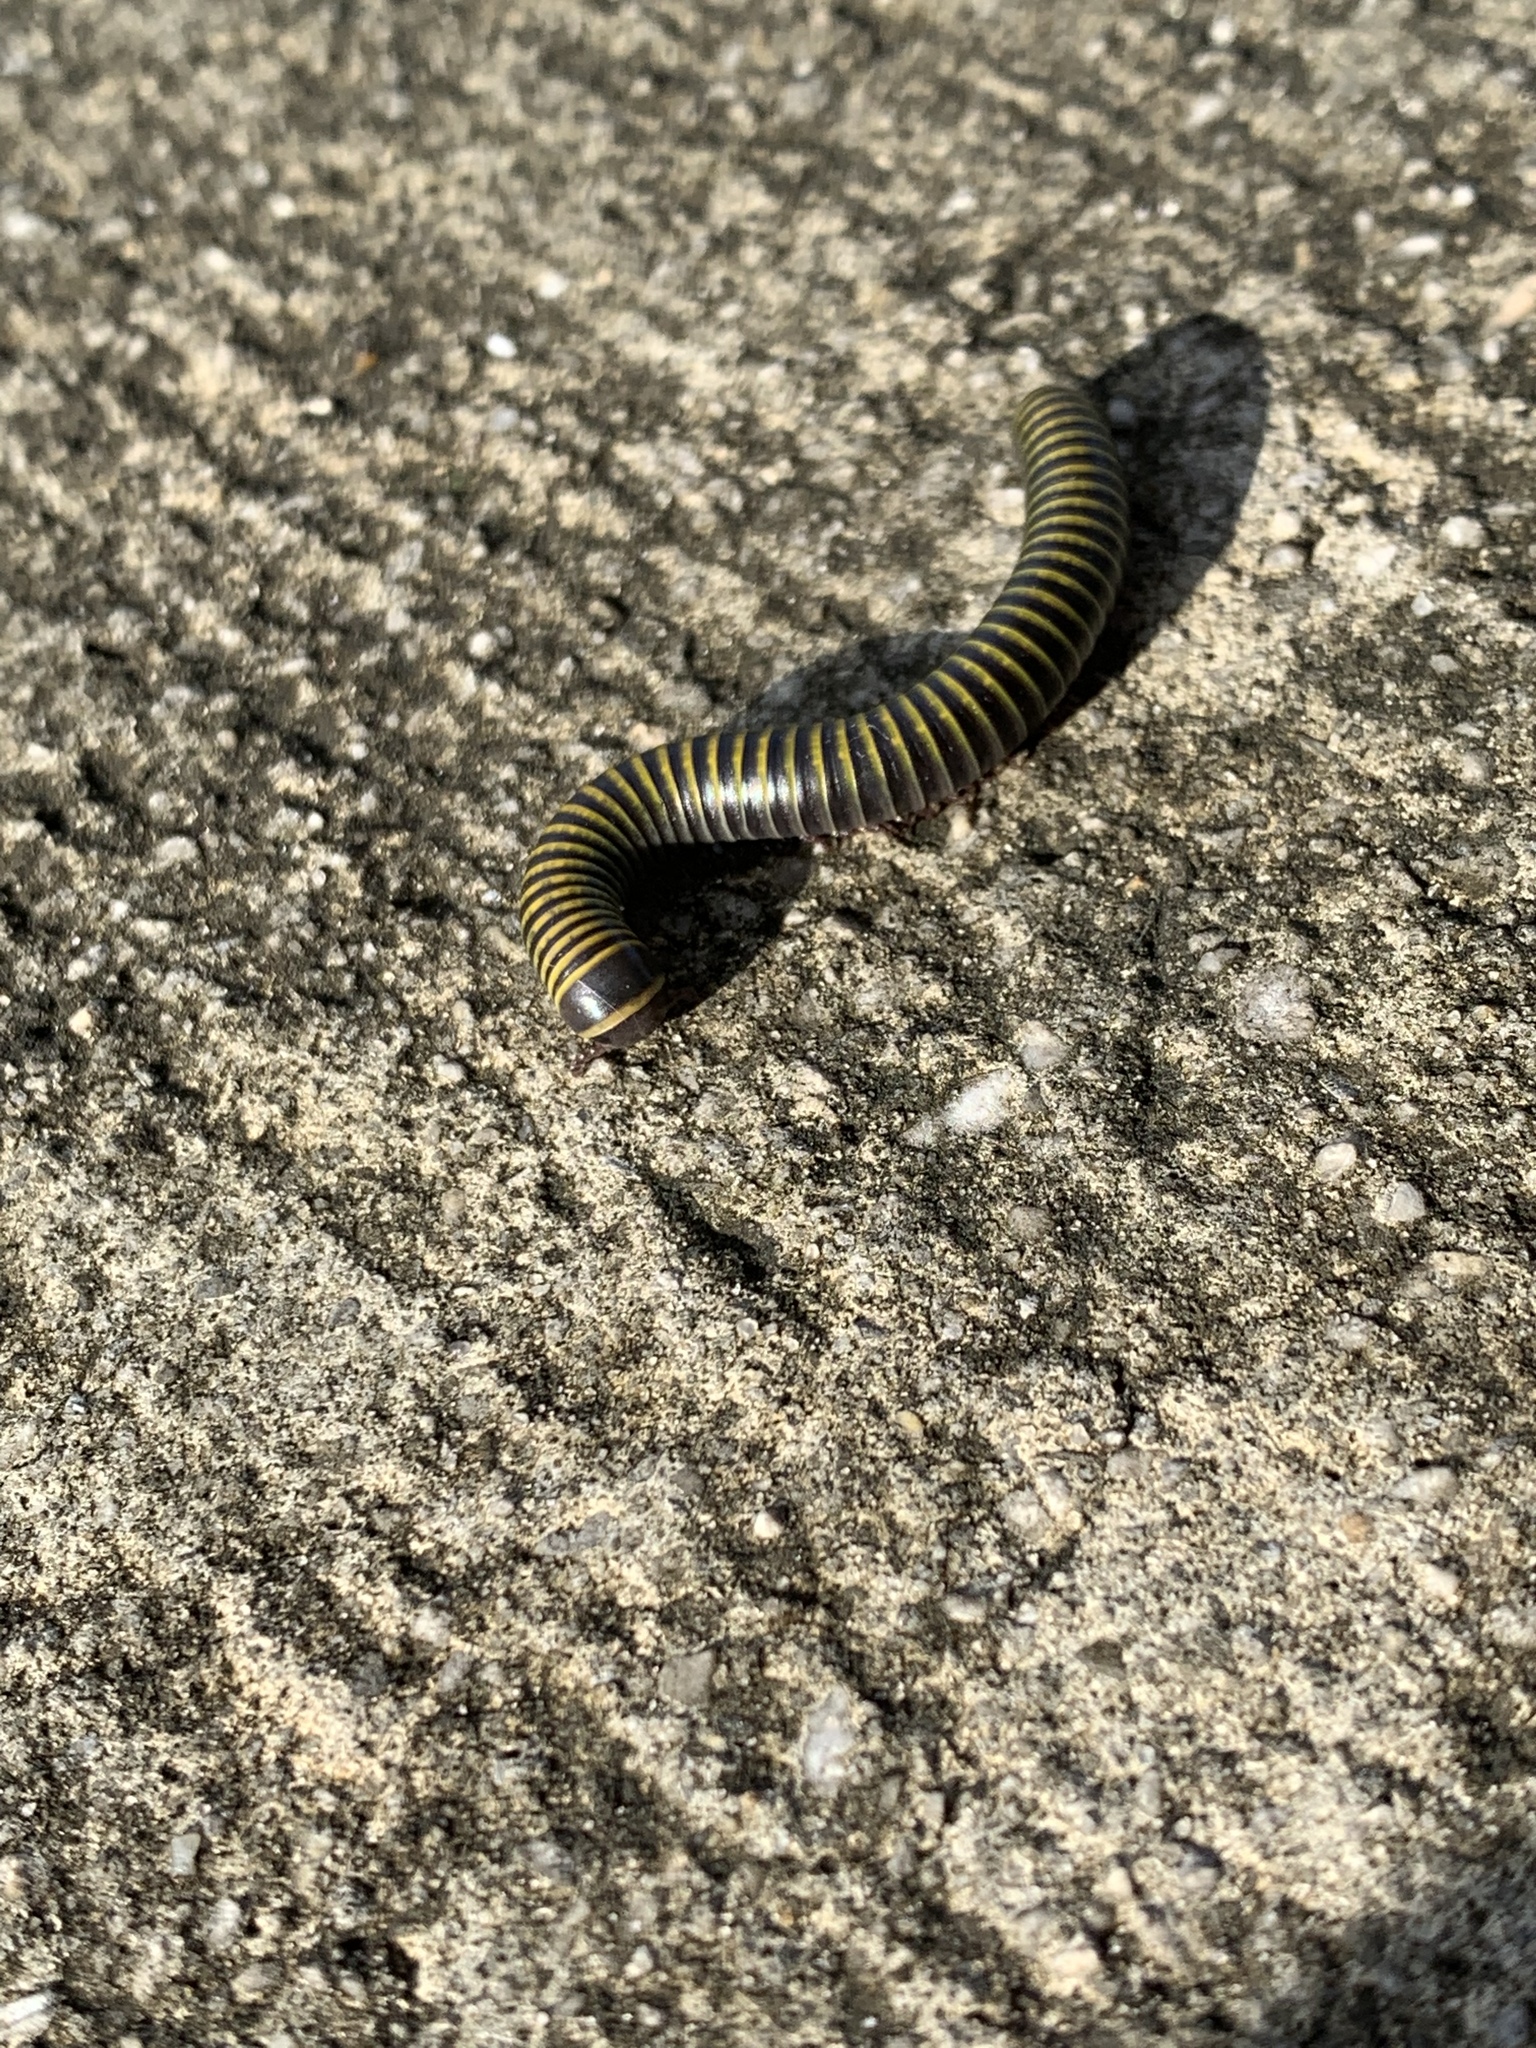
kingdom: Animalia
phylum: Arthropoda
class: Diplopoda
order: Spirobolida
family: Rhinocricidae
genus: Anadenobolus
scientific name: Anadenobolus monilicornis
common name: Caribbean millipede
